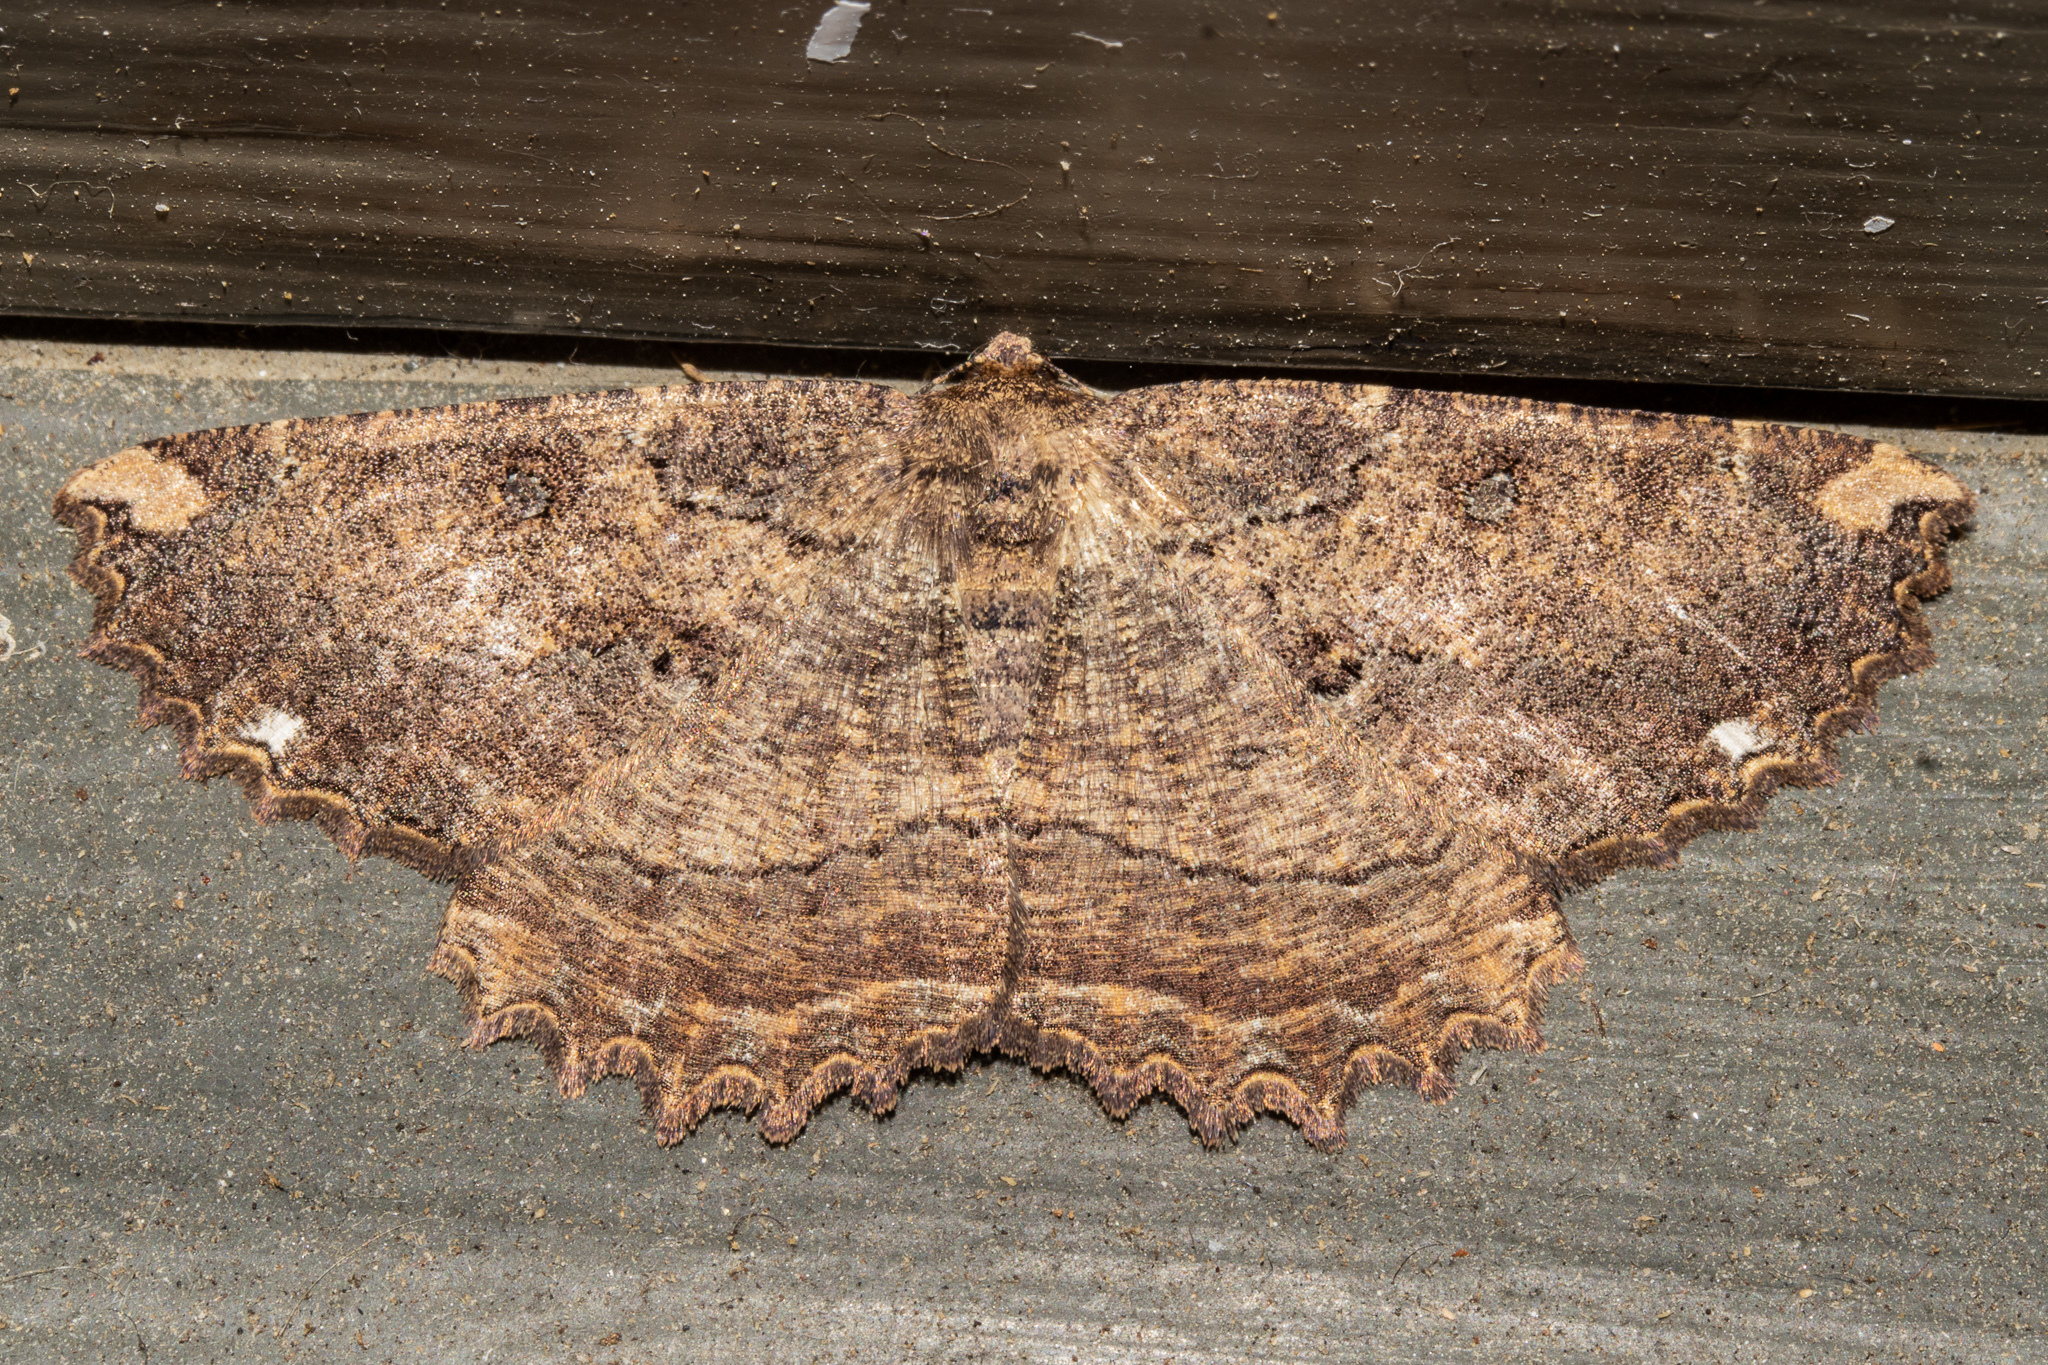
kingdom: Animalia
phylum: Arthropoda
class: Insecta
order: Lepidoptera
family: Geometridae
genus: Gellonia
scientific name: Gellonia dejectaria
